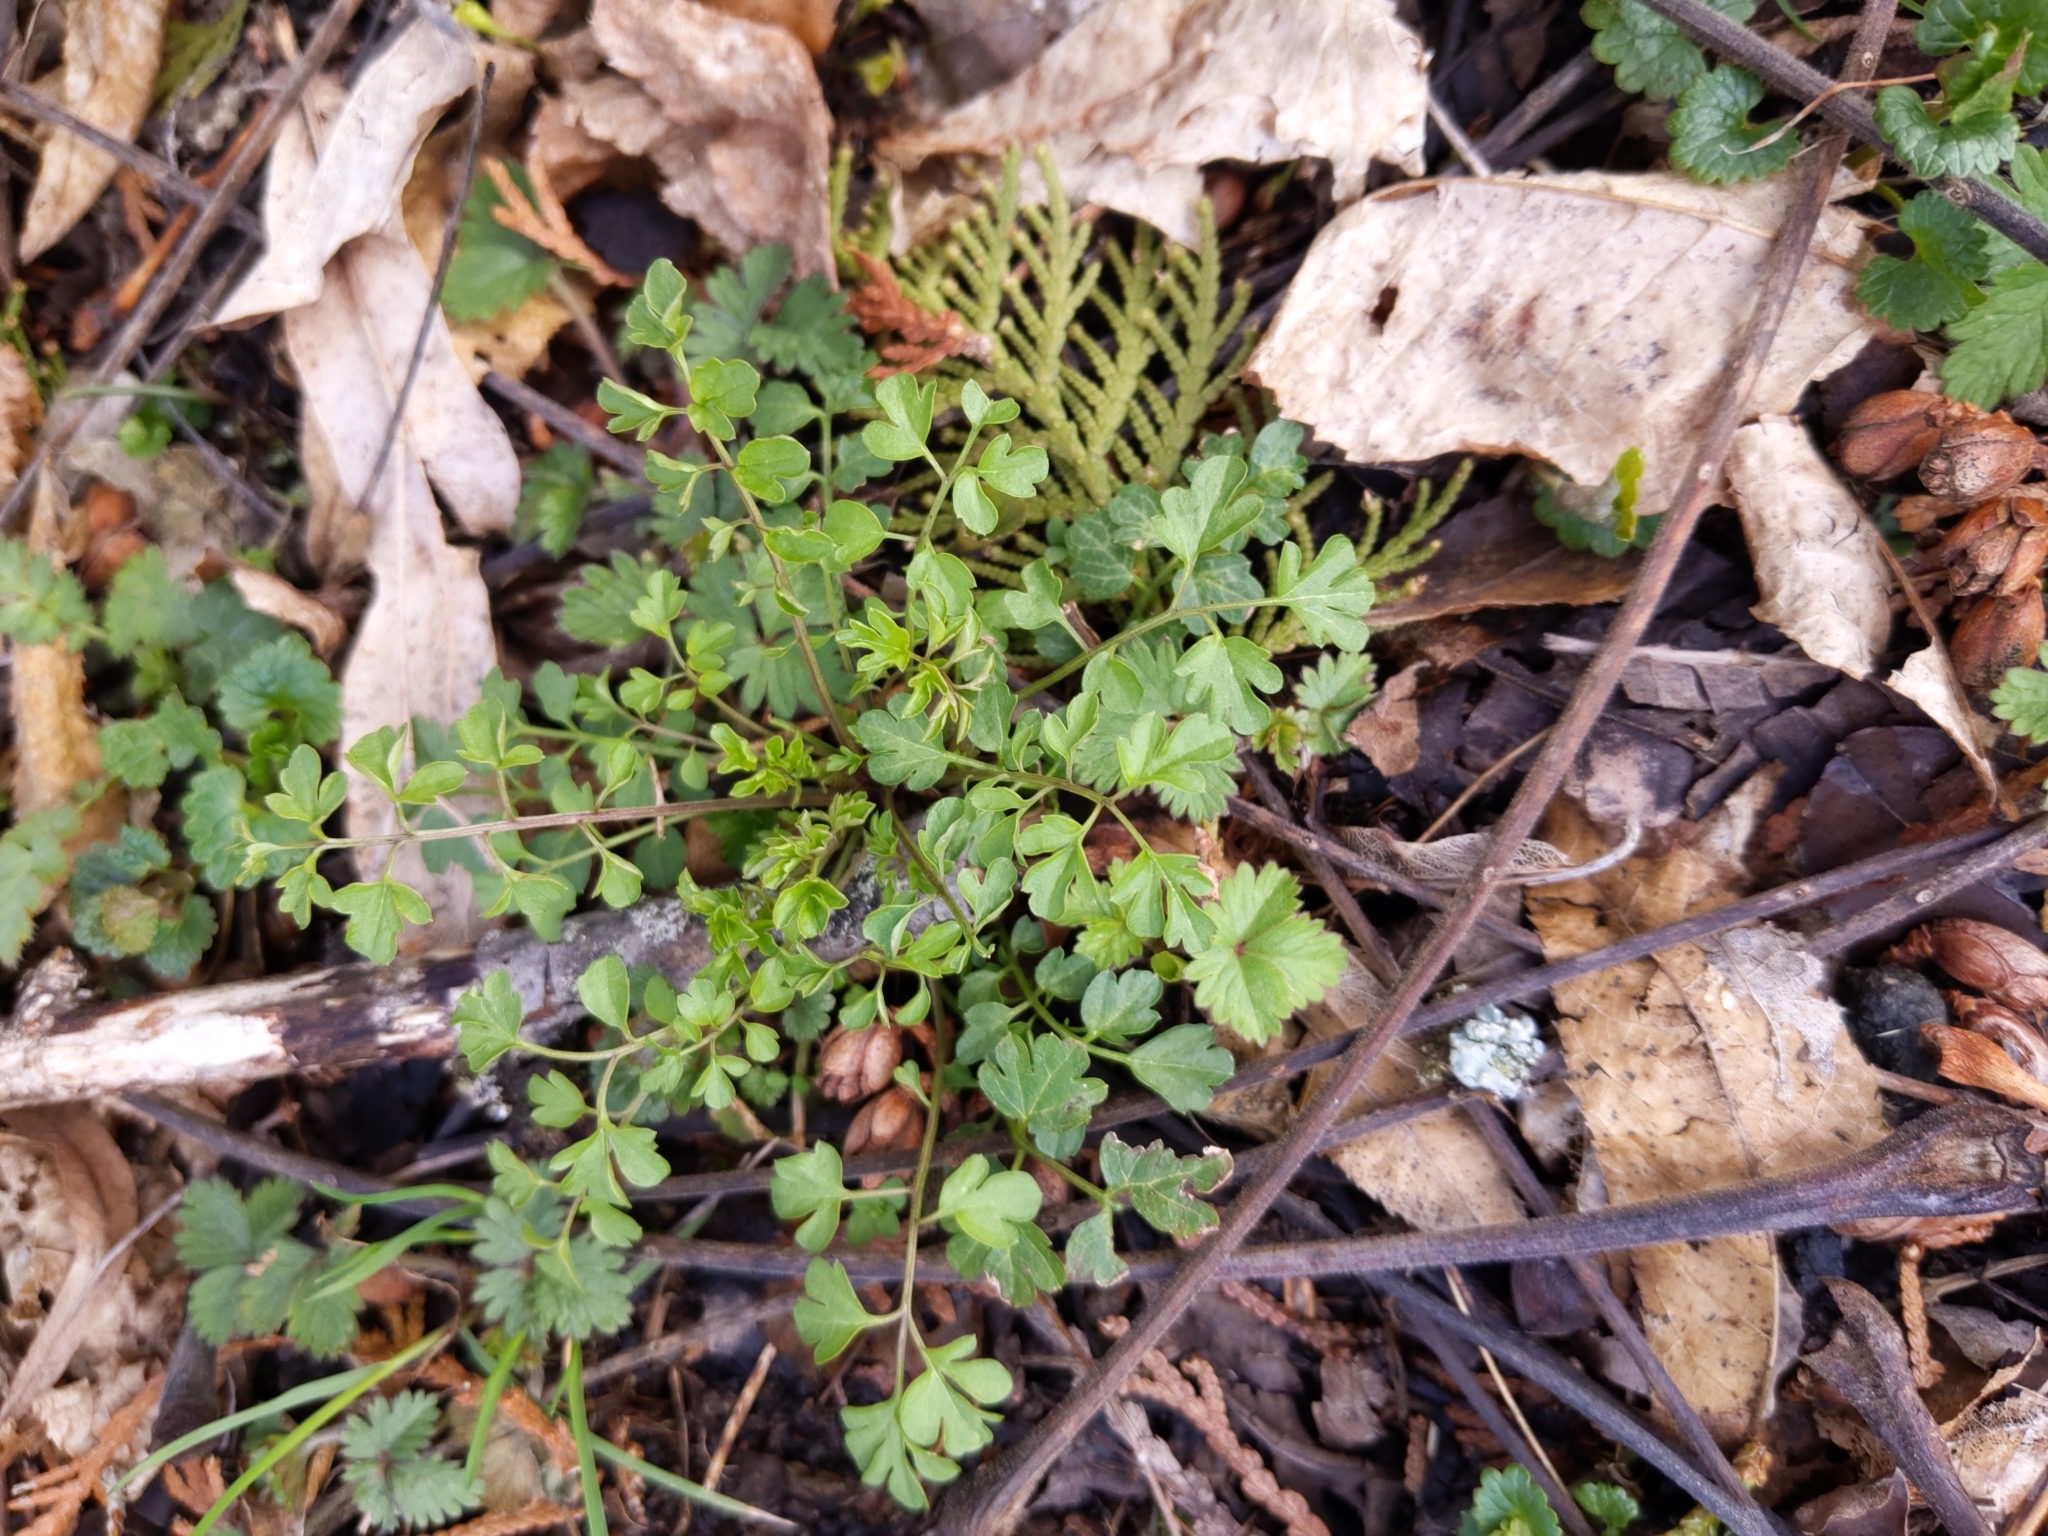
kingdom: Plantae
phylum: Tracheophyta
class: Magnoliopsida
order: Brassicales
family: Brassicaceae
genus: Cardamine
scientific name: Cardamine impatiens
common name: Narrow-leaved bitter-cress
